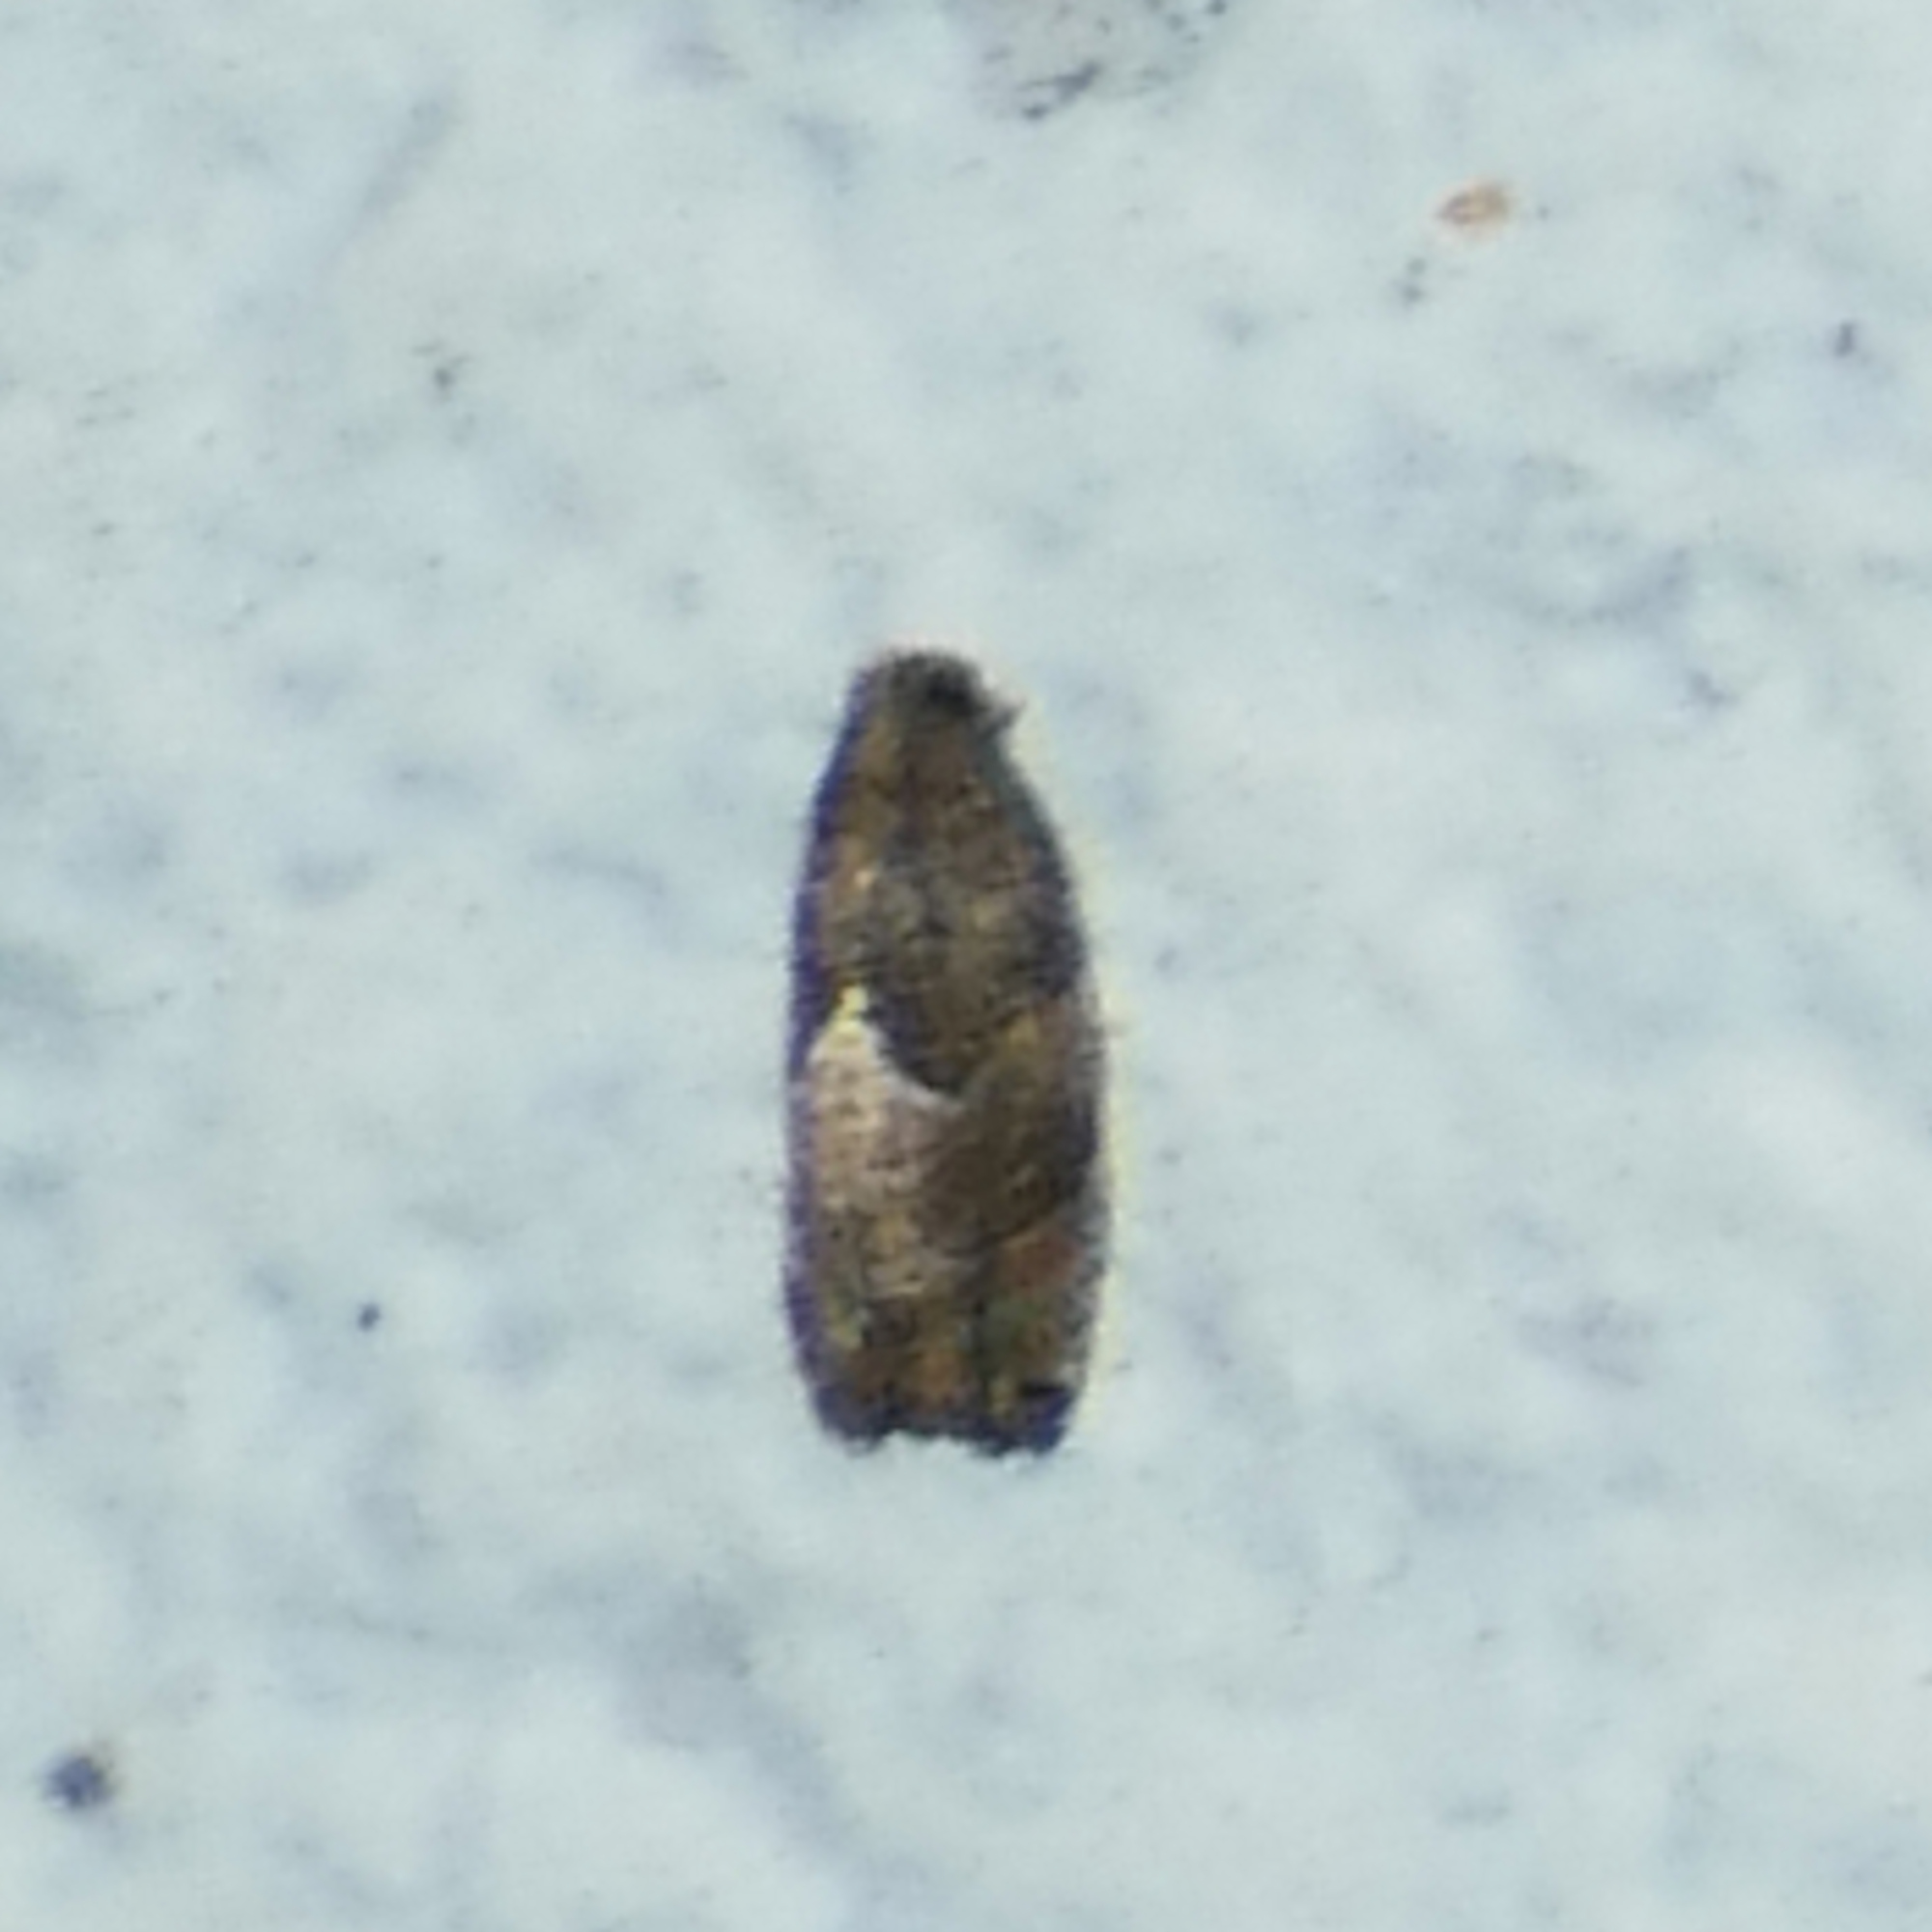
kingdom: Animalia
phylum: Arthropoda
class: Insecta
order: Lepidoptera
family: Tortricidae
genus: Gypsonoma
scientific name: Gypsonoma salicicolana
